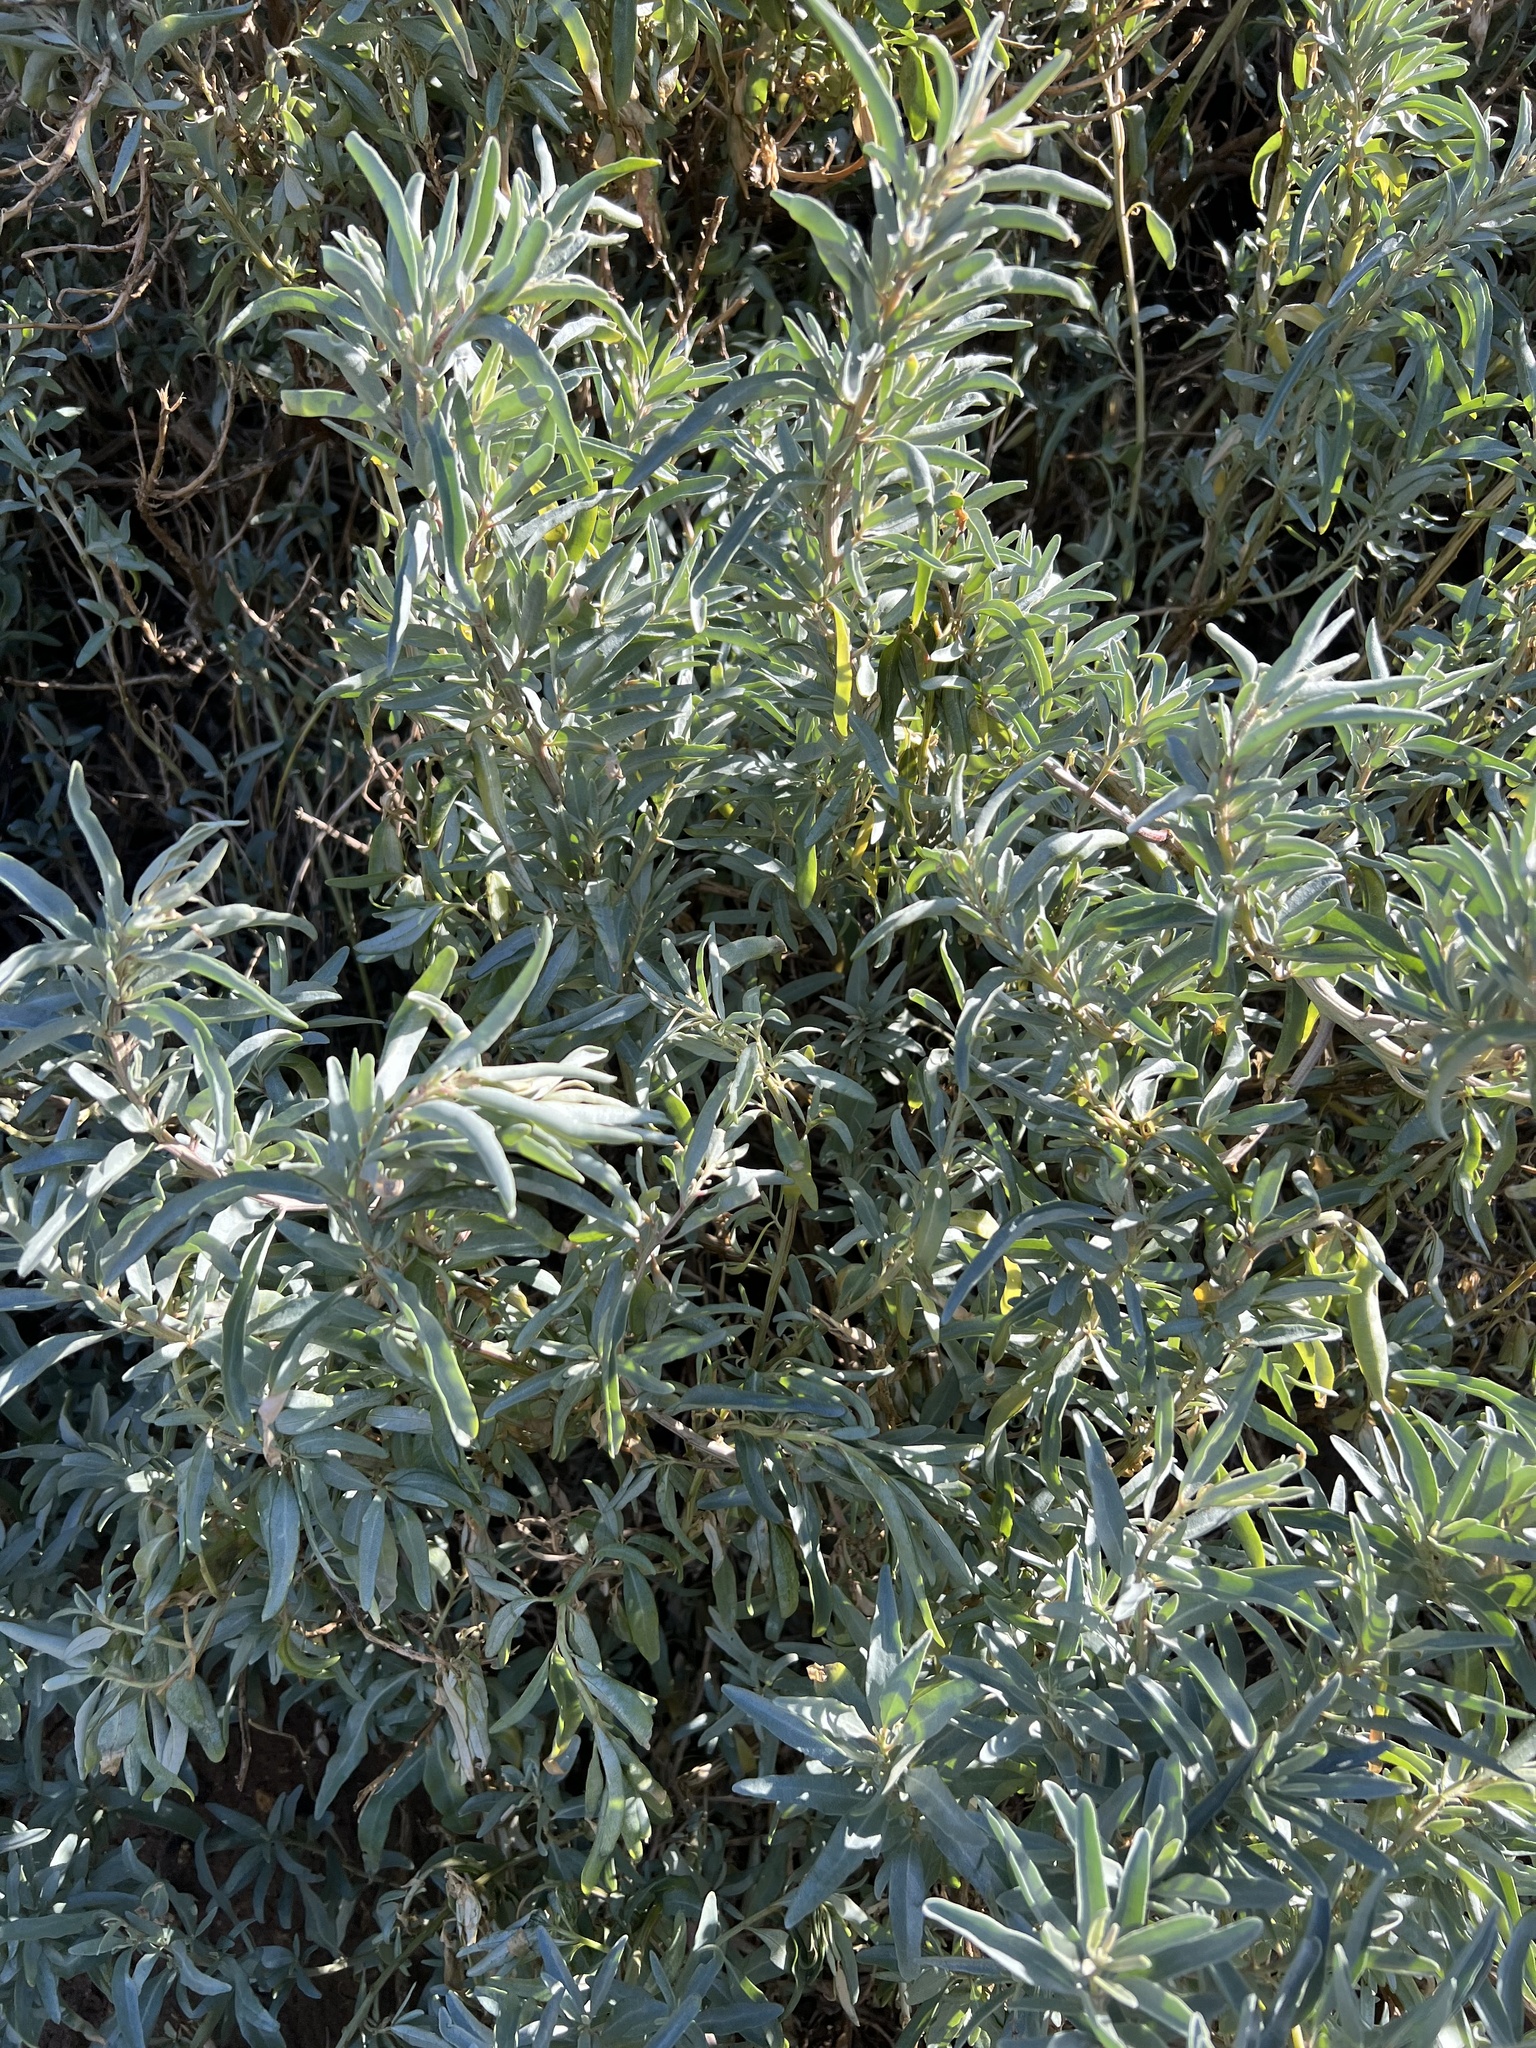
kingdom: Plantae
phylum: Tracheophyta
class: Magnoliopsida
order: Caryophyllales
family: Amaranthaceae
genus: Atriplex
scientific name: Atriplex cinerea
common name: Grey saltbush
